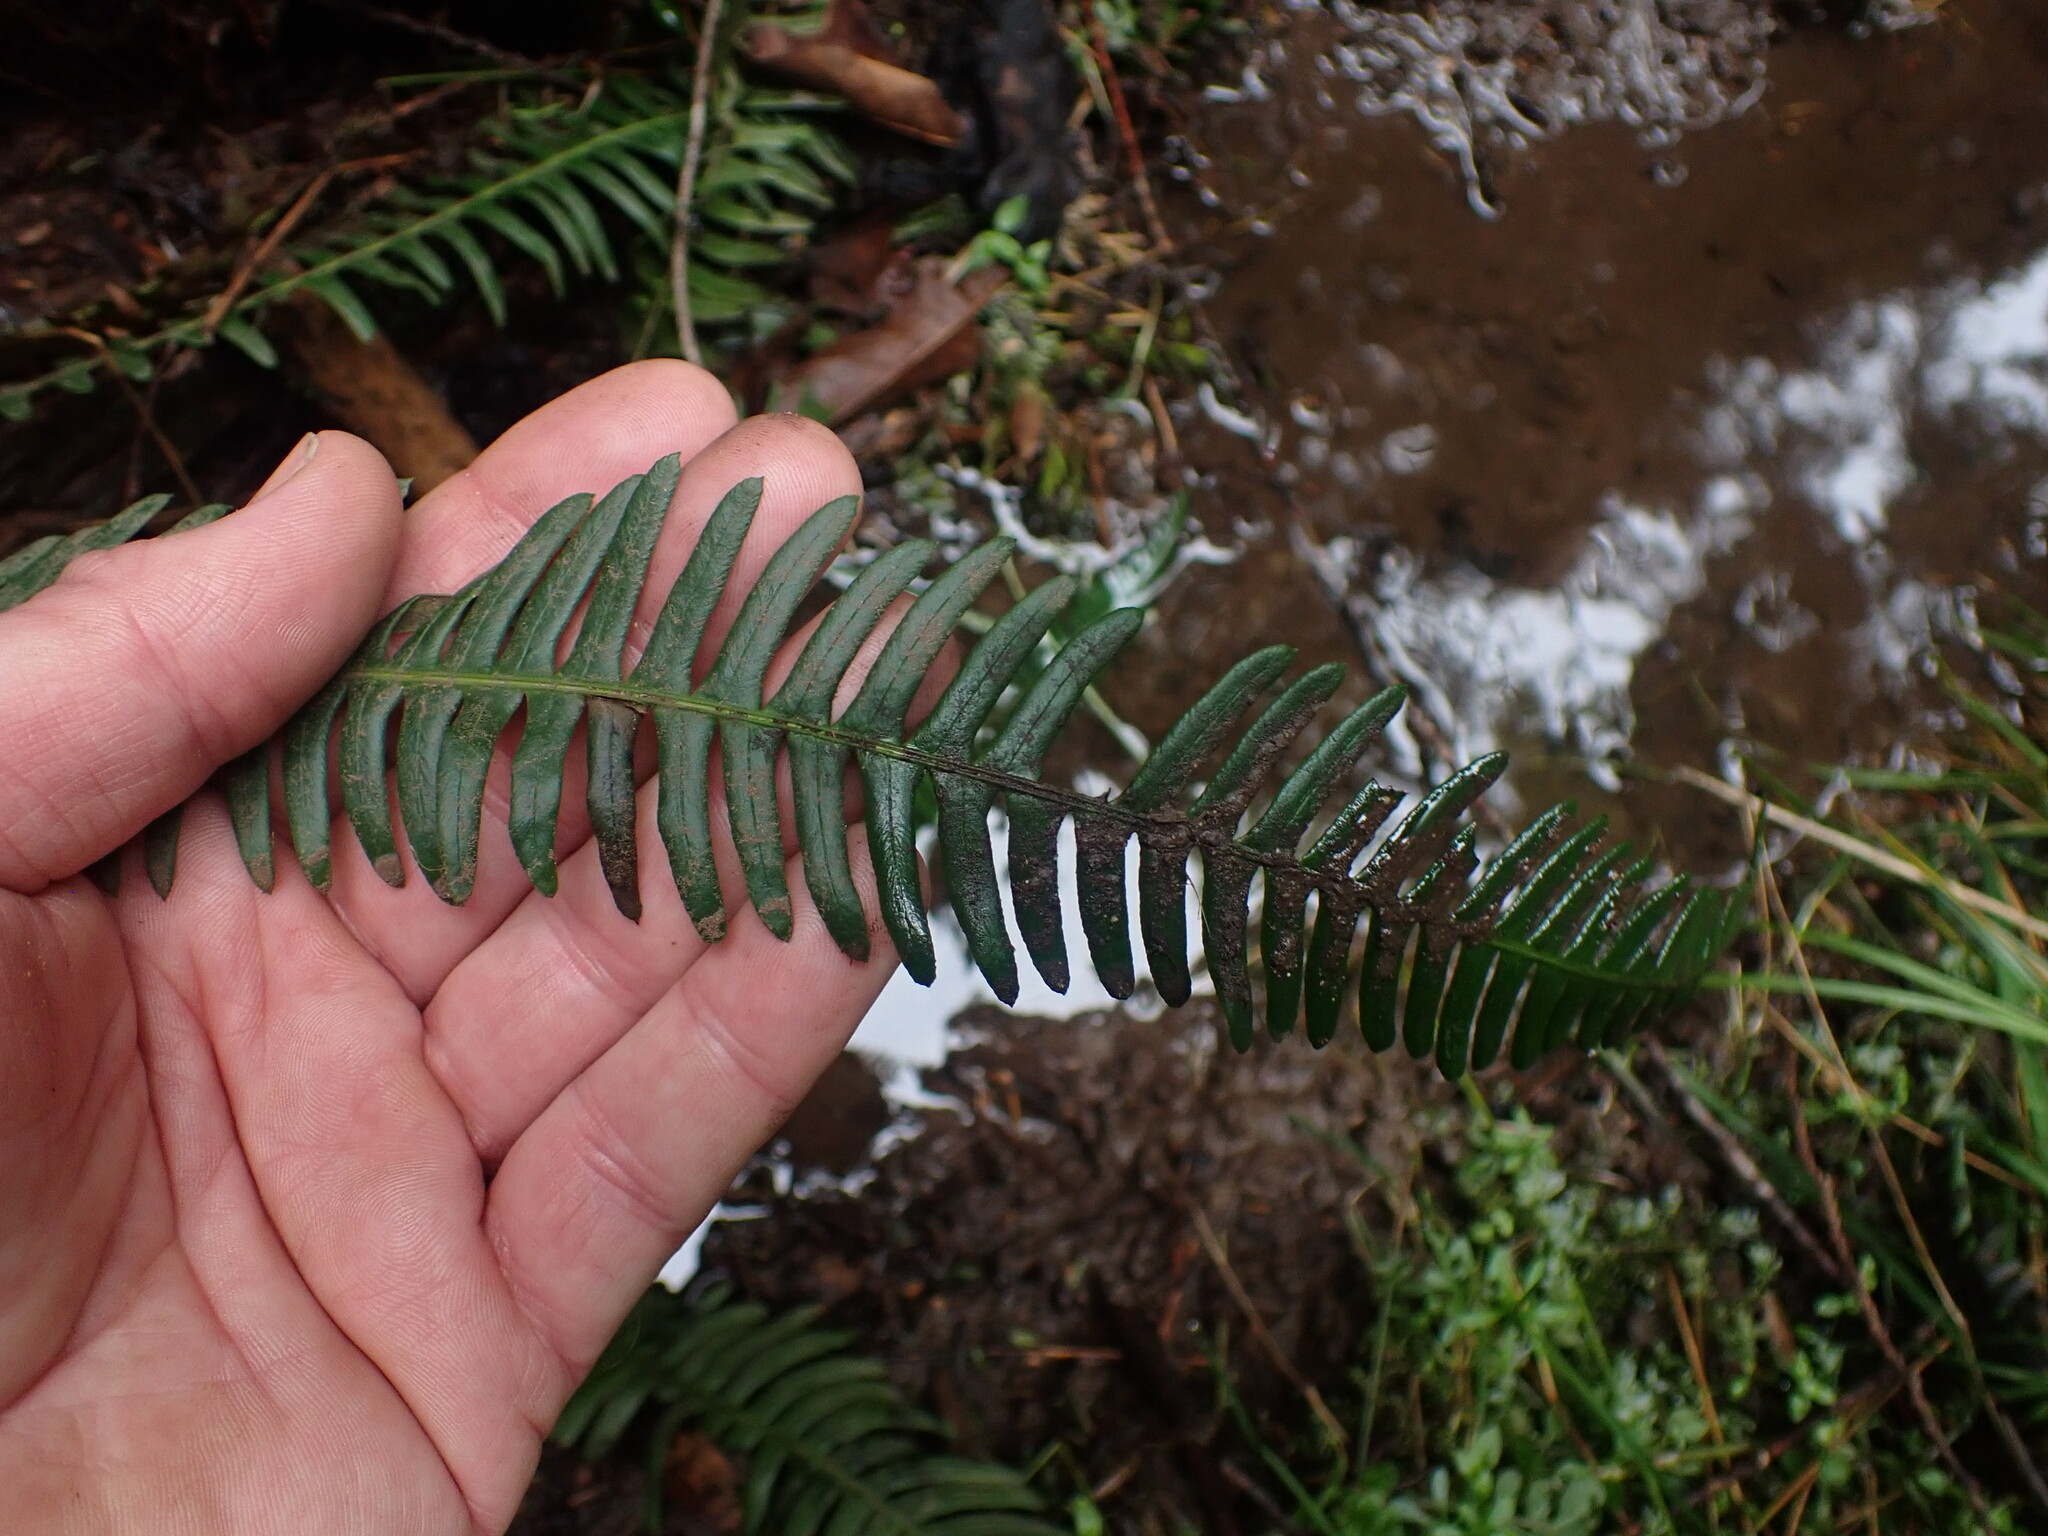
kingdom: Plantae
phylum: Tracheophyta
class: Polypodiopsida
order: Polypodiales
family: Blechnaceae
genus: Struthiopteris
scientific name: Struthiopteris spicant
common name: Deer fern
